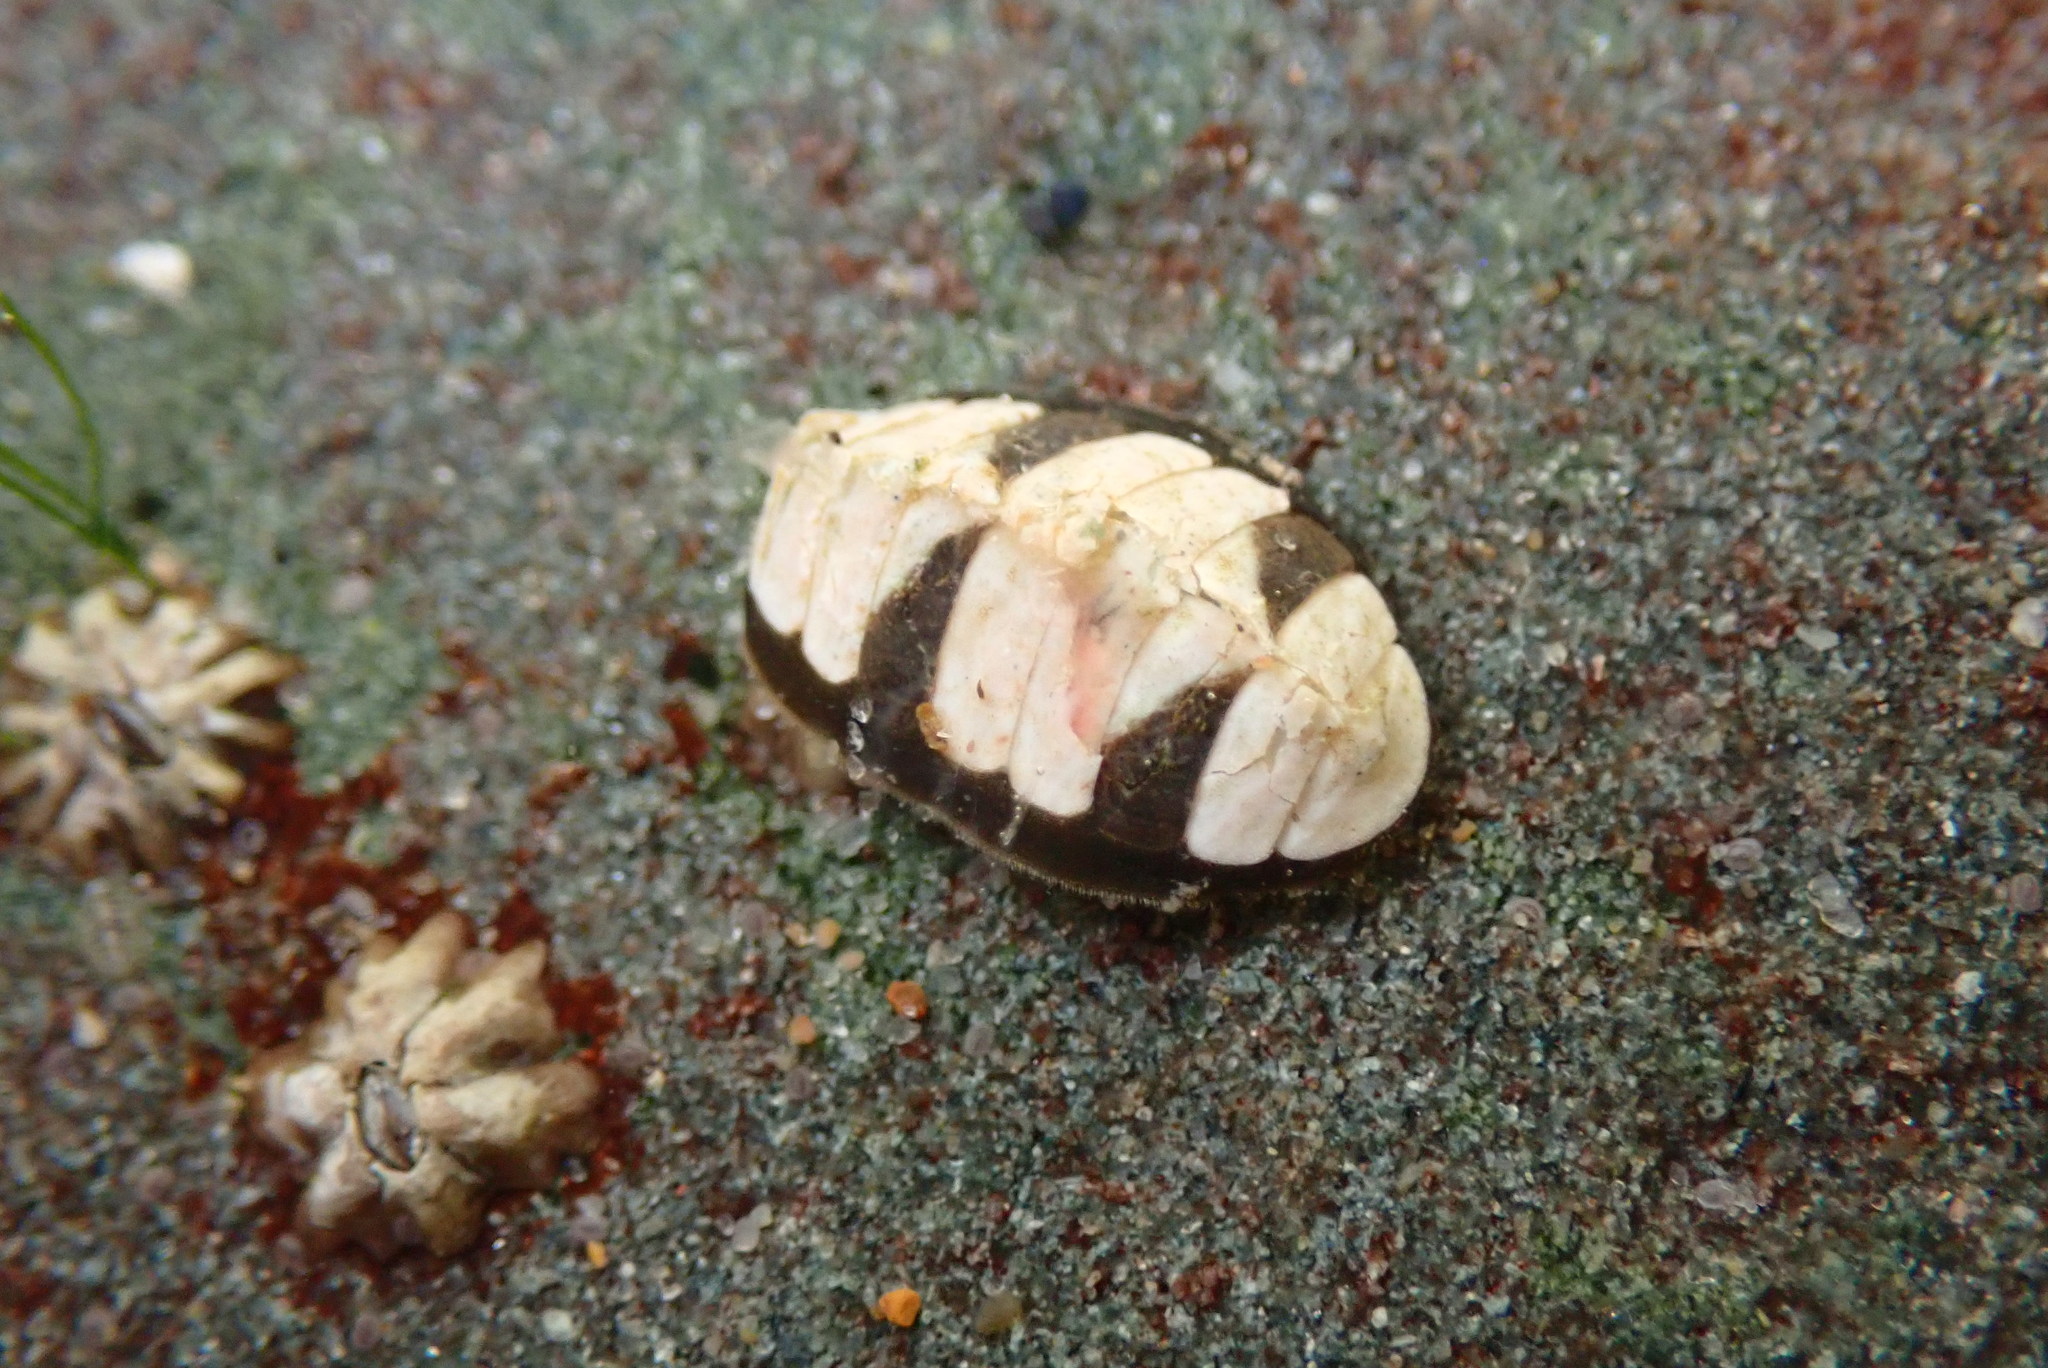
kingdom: Animalia
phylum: Mollusca
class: Polyplacophora
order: Chitonida
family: Tonicellidae
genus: Cyanoplax
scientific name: Cyanoplax keepiana
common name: Keep's chiton
